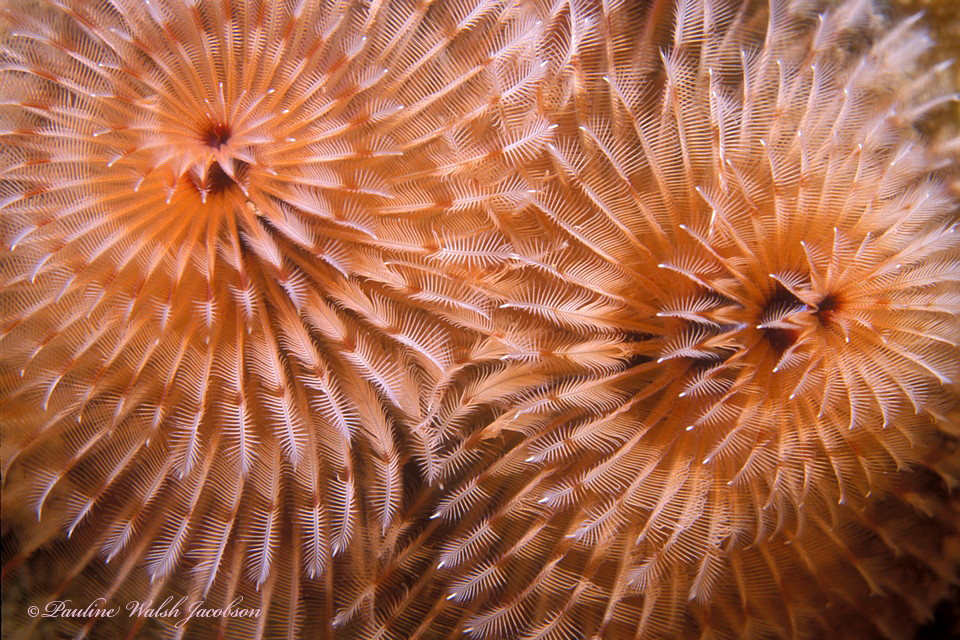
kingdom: Animalia
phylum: Annelida
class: Polychaeta
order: Sabellida
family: Serpulidae
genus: Spirobranchus
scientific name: Spirobranchus giganteus
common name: Christmas tree worm
